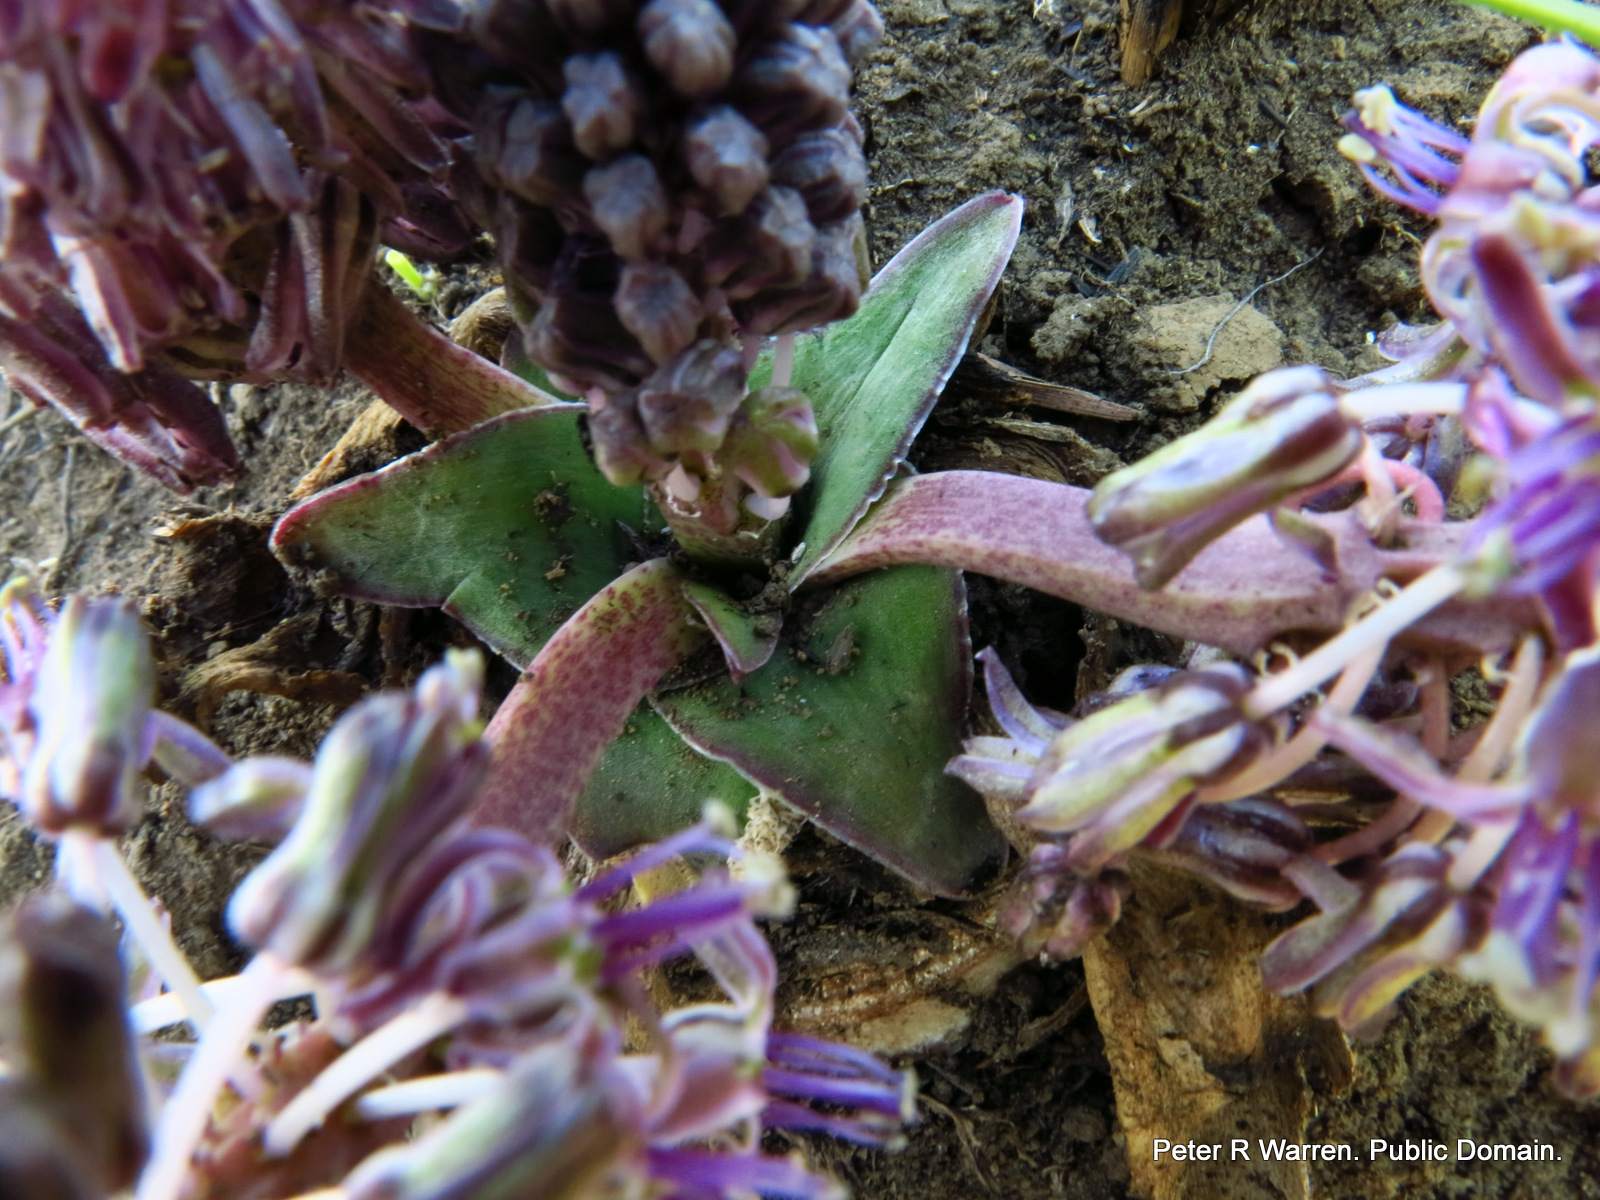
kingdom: Plantae
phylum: Tracheophyta
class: Liliopsida
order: Asparagales
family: Asparagaceae
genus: Ledebouria
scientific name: Ledebouria ovatifolia
